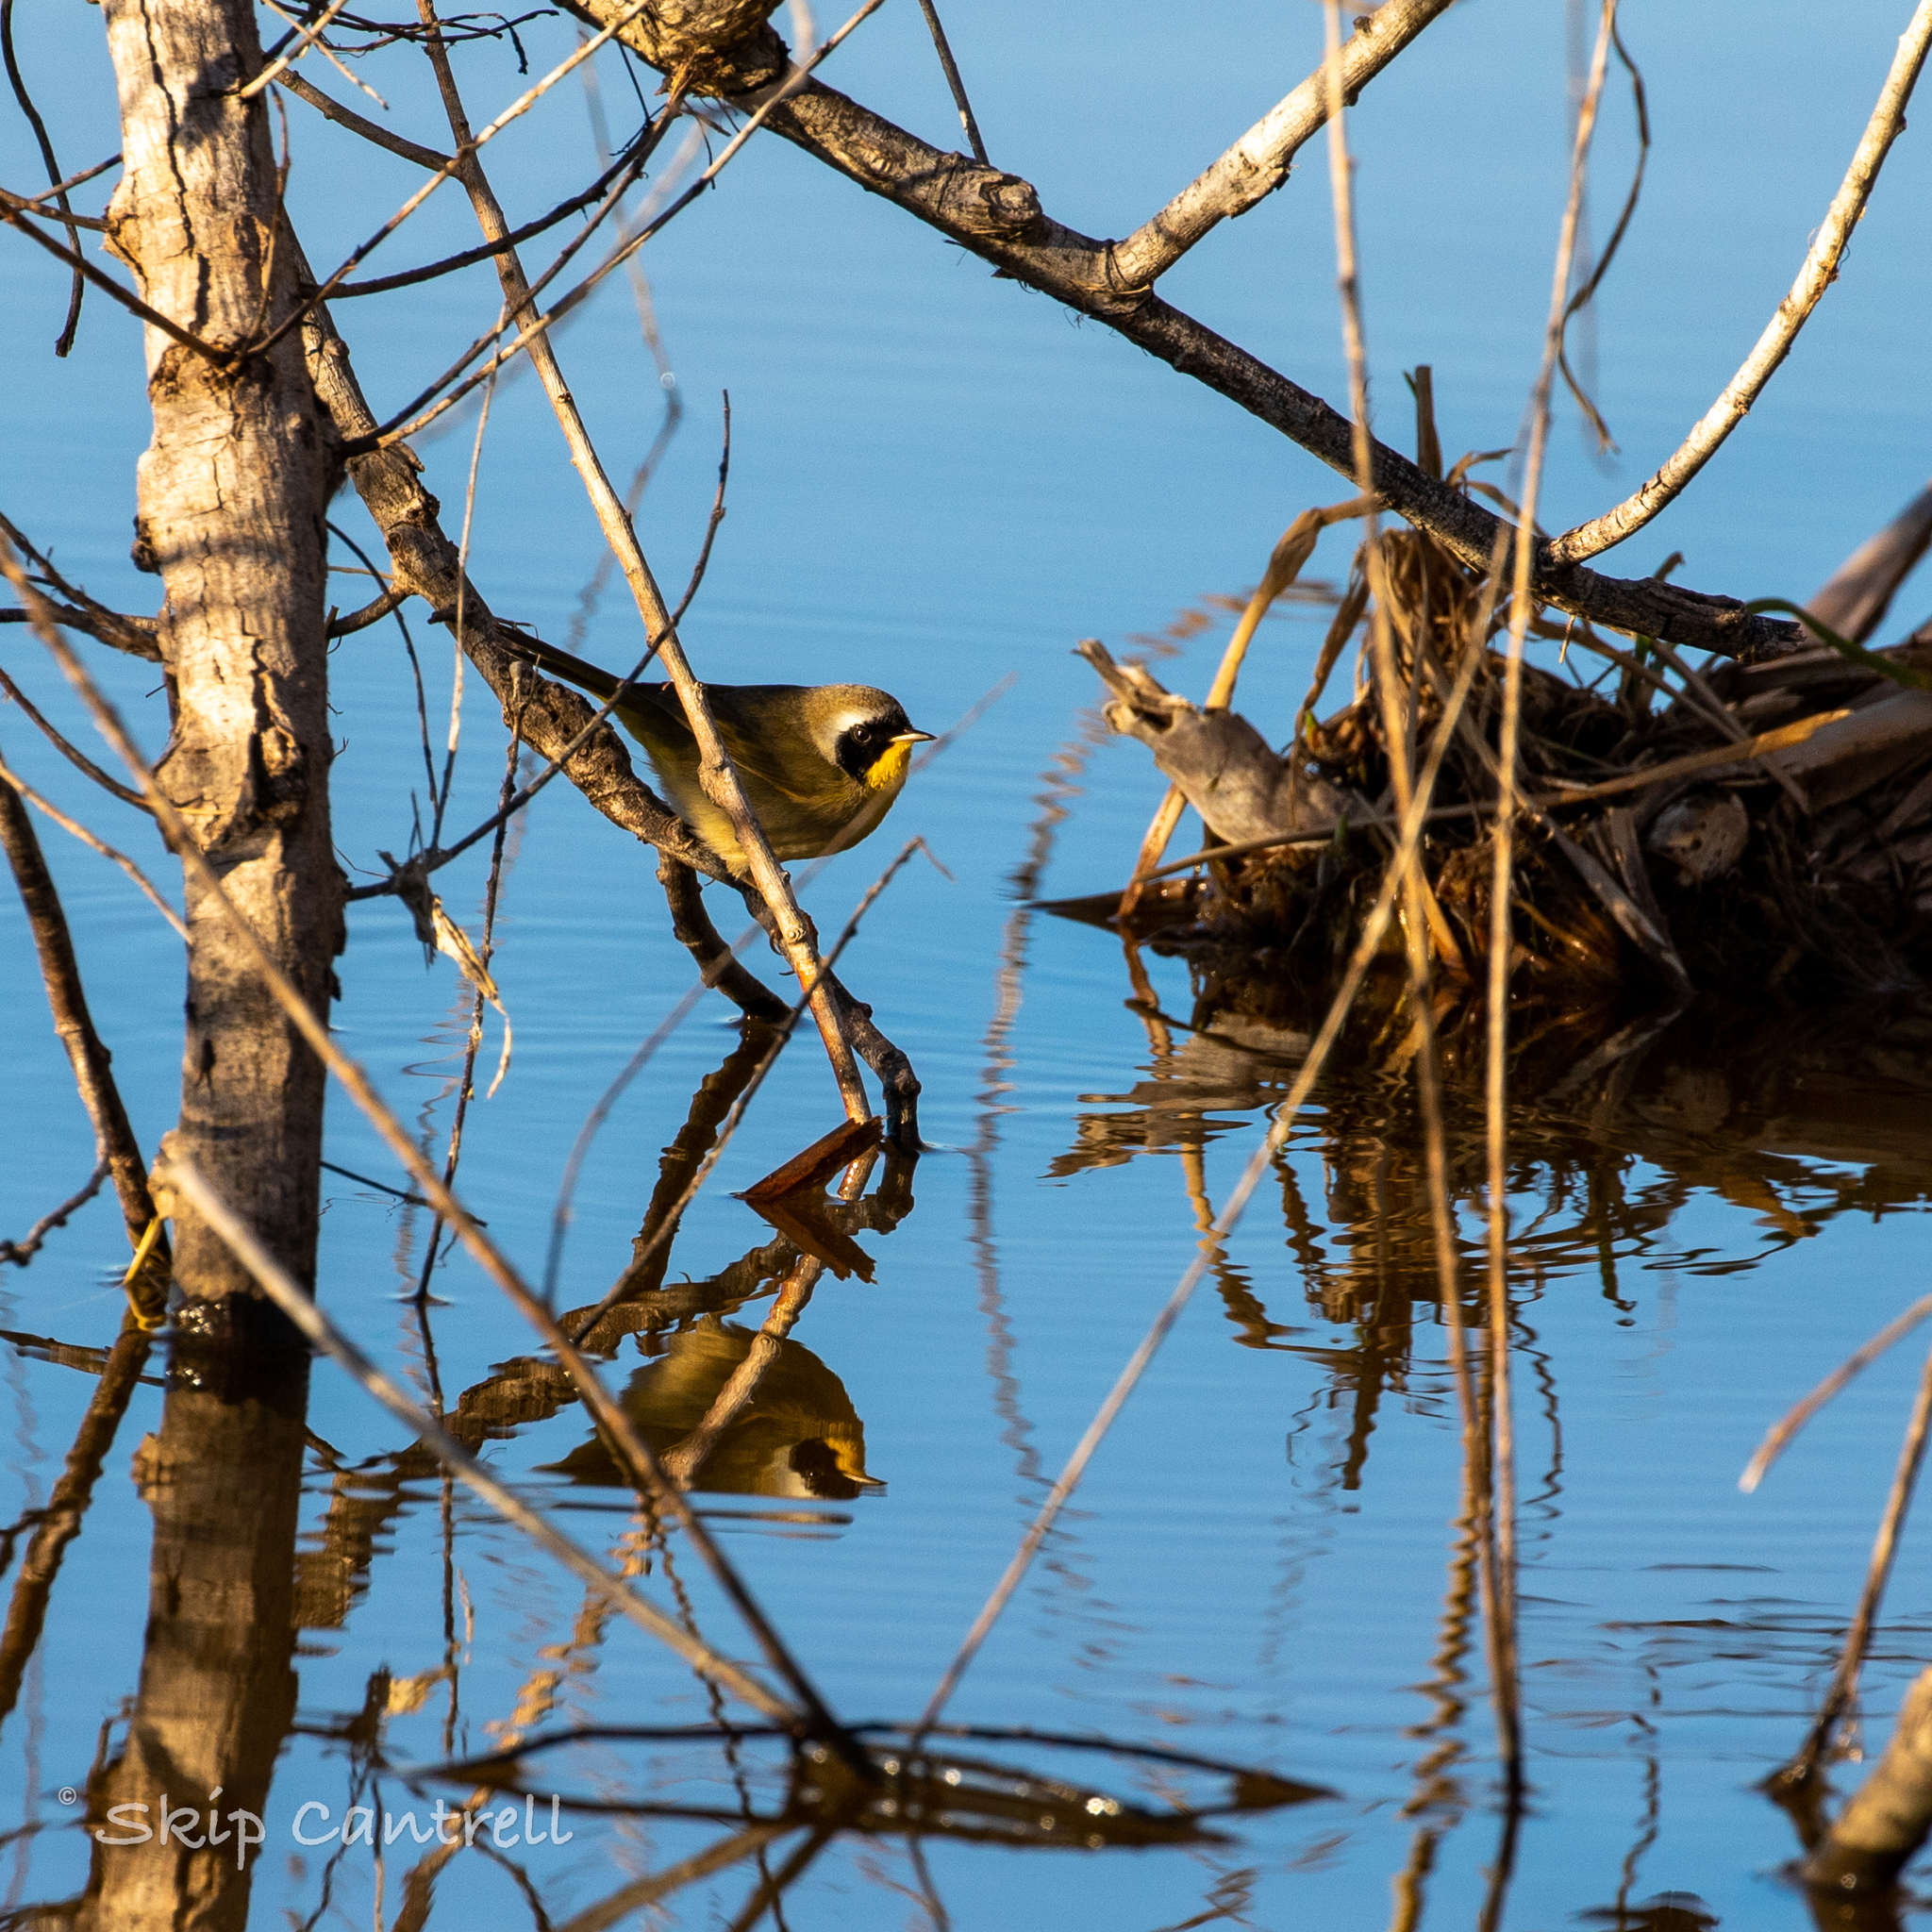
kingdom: Animalia
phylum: Chordata
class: Aves
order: Passeriformes
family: Parulidae
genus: Geothlypis
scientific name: Geothlypis trichas
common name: Common yellowthroat
